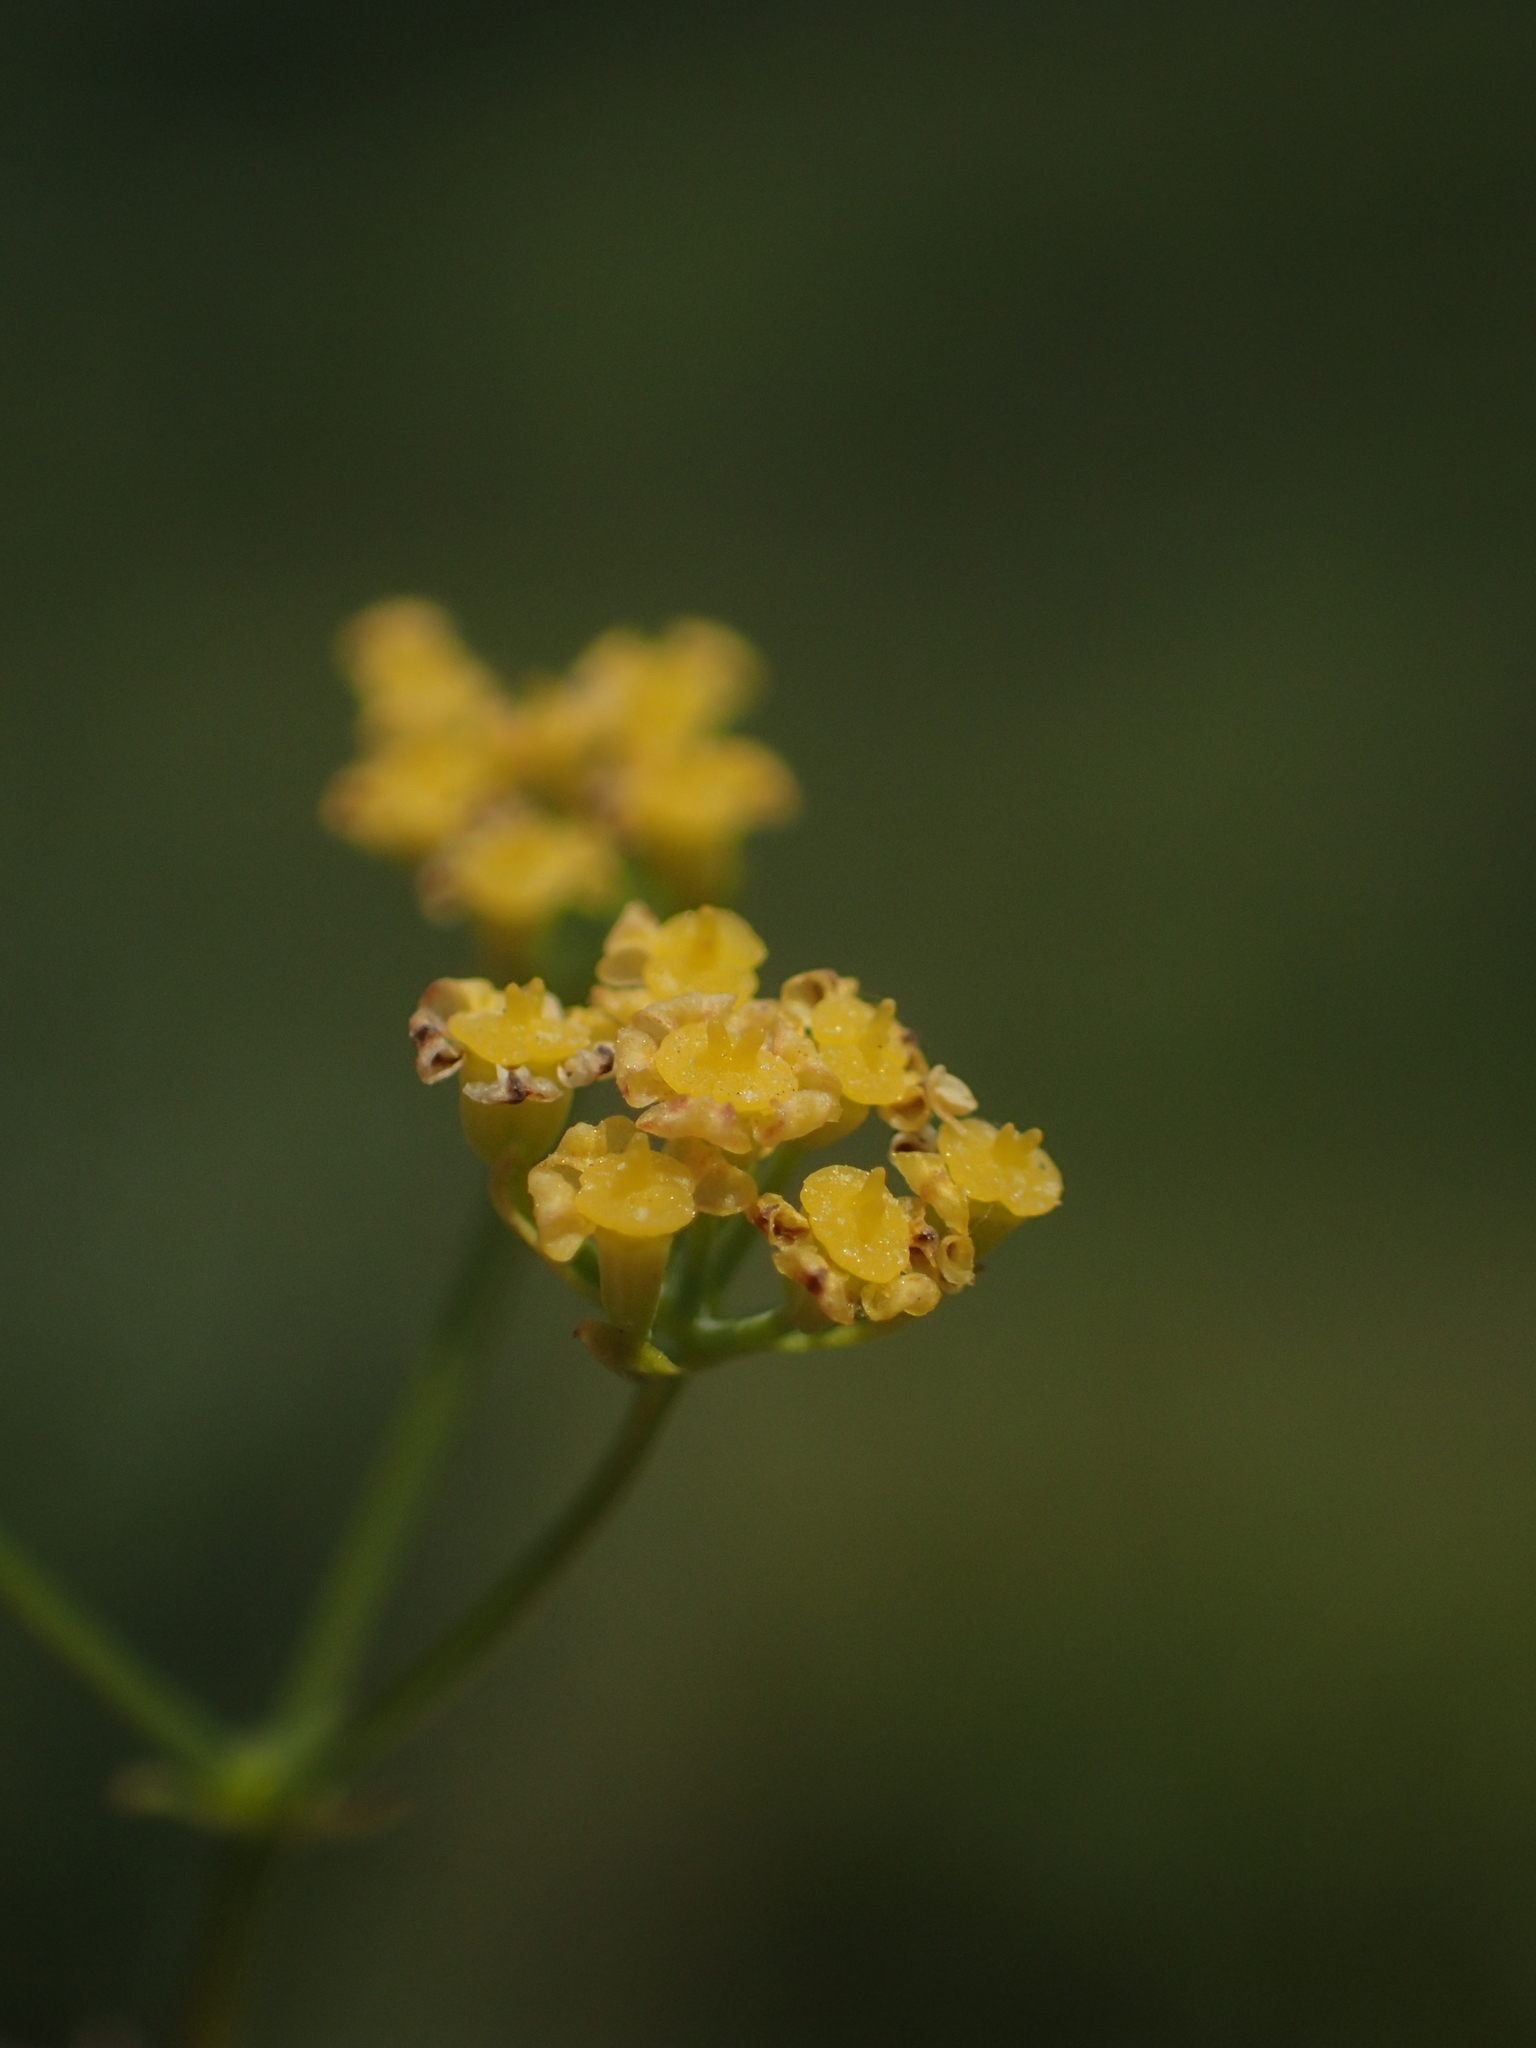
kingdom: Plantae
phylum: Tracheophyta
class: Magnoliopsida
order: Apiales
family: Apiaceae
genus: Bupleurum
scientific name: Bupleurum kaoi
